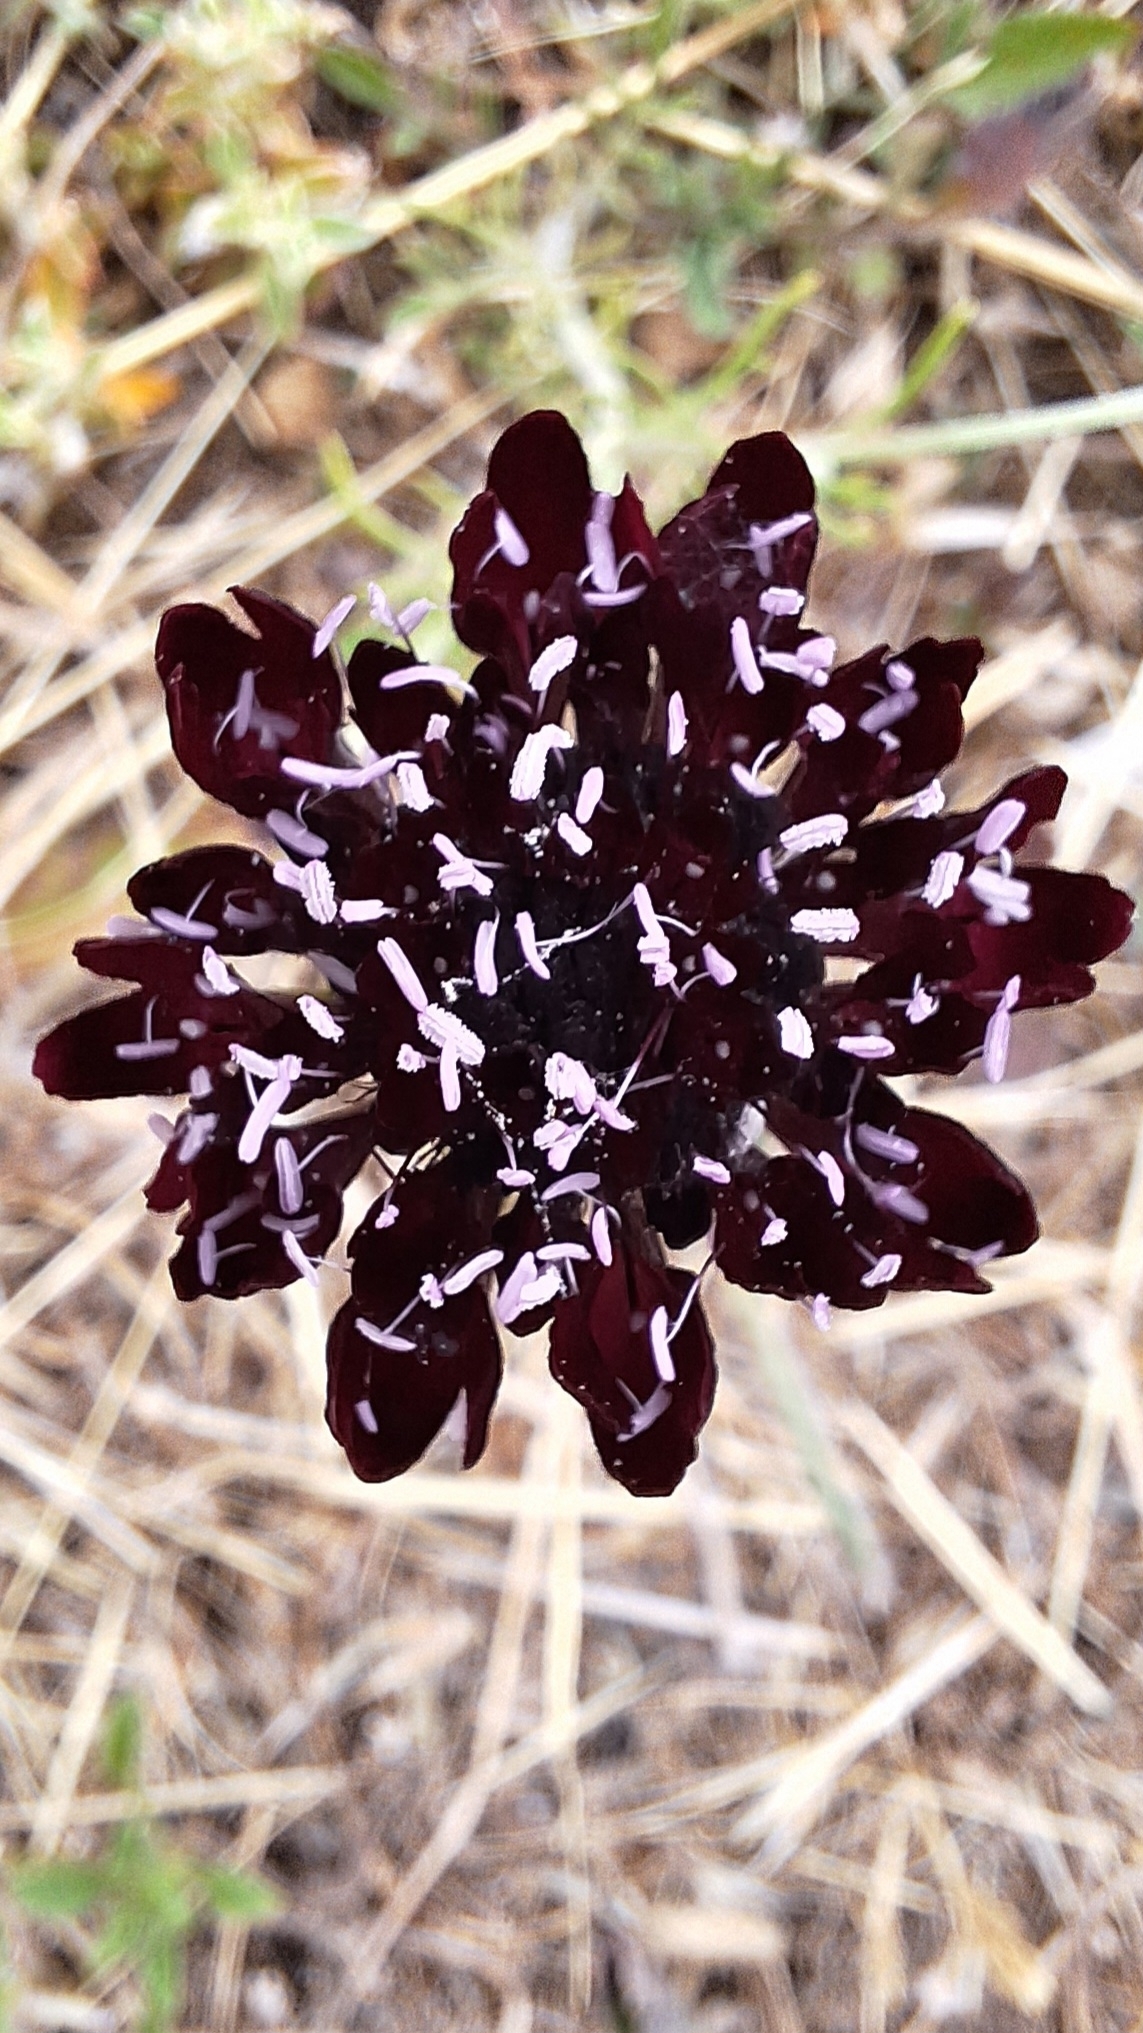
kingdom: Plantae
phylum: Tracheophyta
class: Magnoliopsida
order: Dipsacales
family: Caprifoliaceae
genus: Sixalix
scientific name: Sixalix atropurpurea
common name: Sweet scabious
